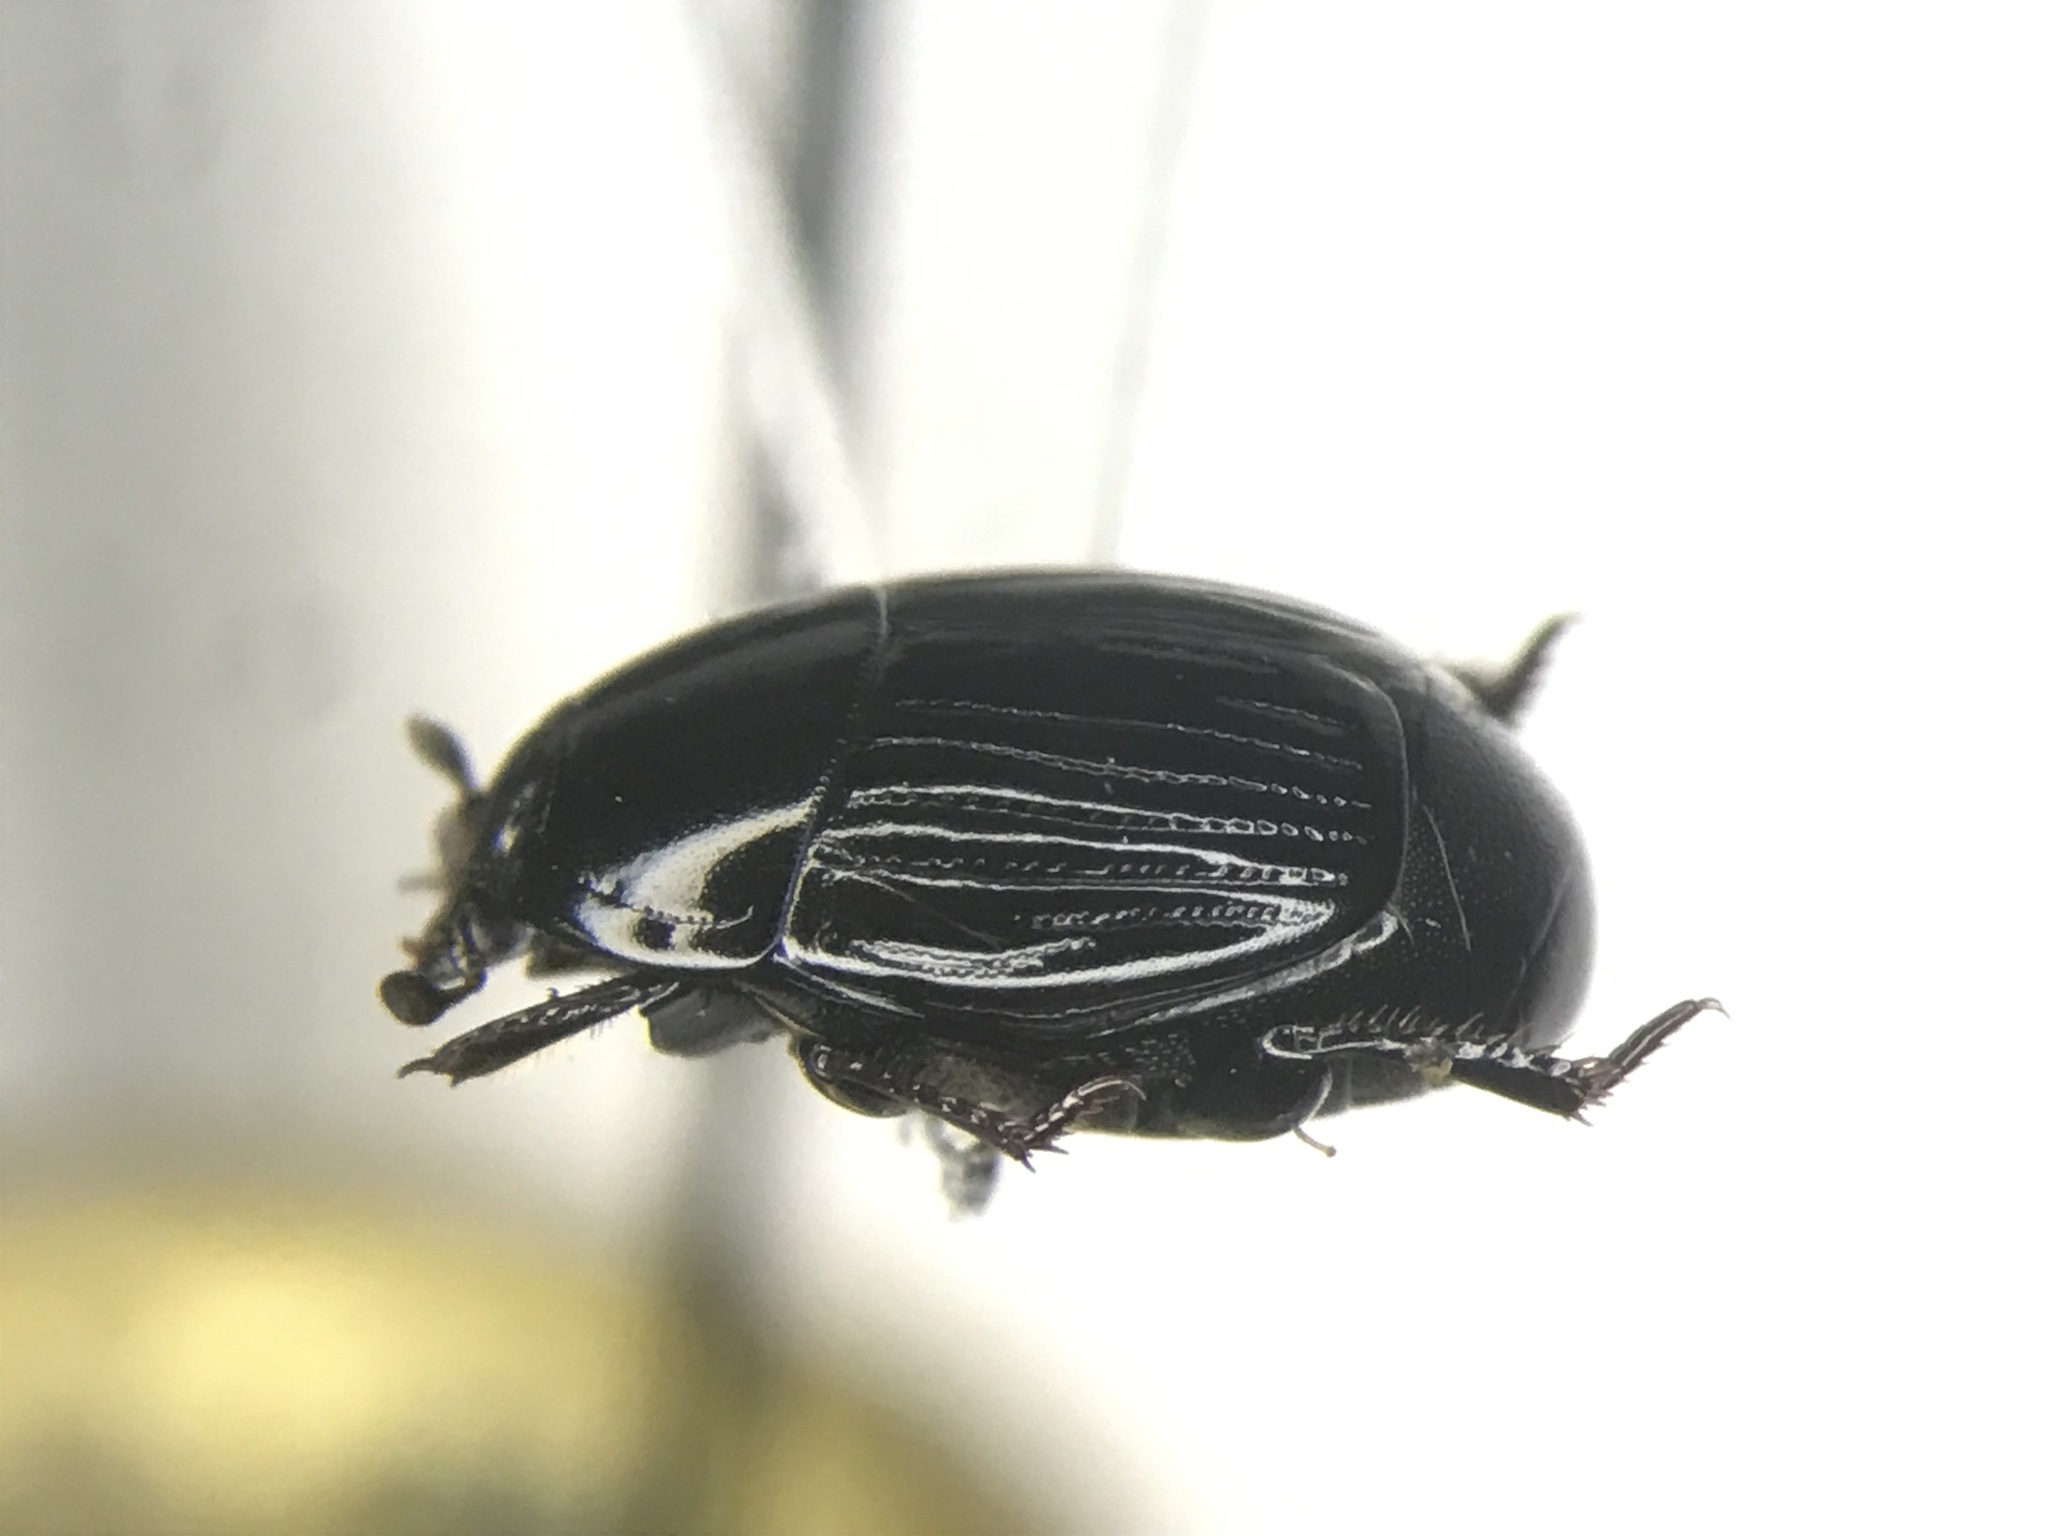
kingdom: Animalia
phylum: Arthropoda
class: Insecta
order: Coleoptera
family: Histeridae
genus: Hister
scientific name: Hister abbreviatus
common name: Abbreviated clown beetle
